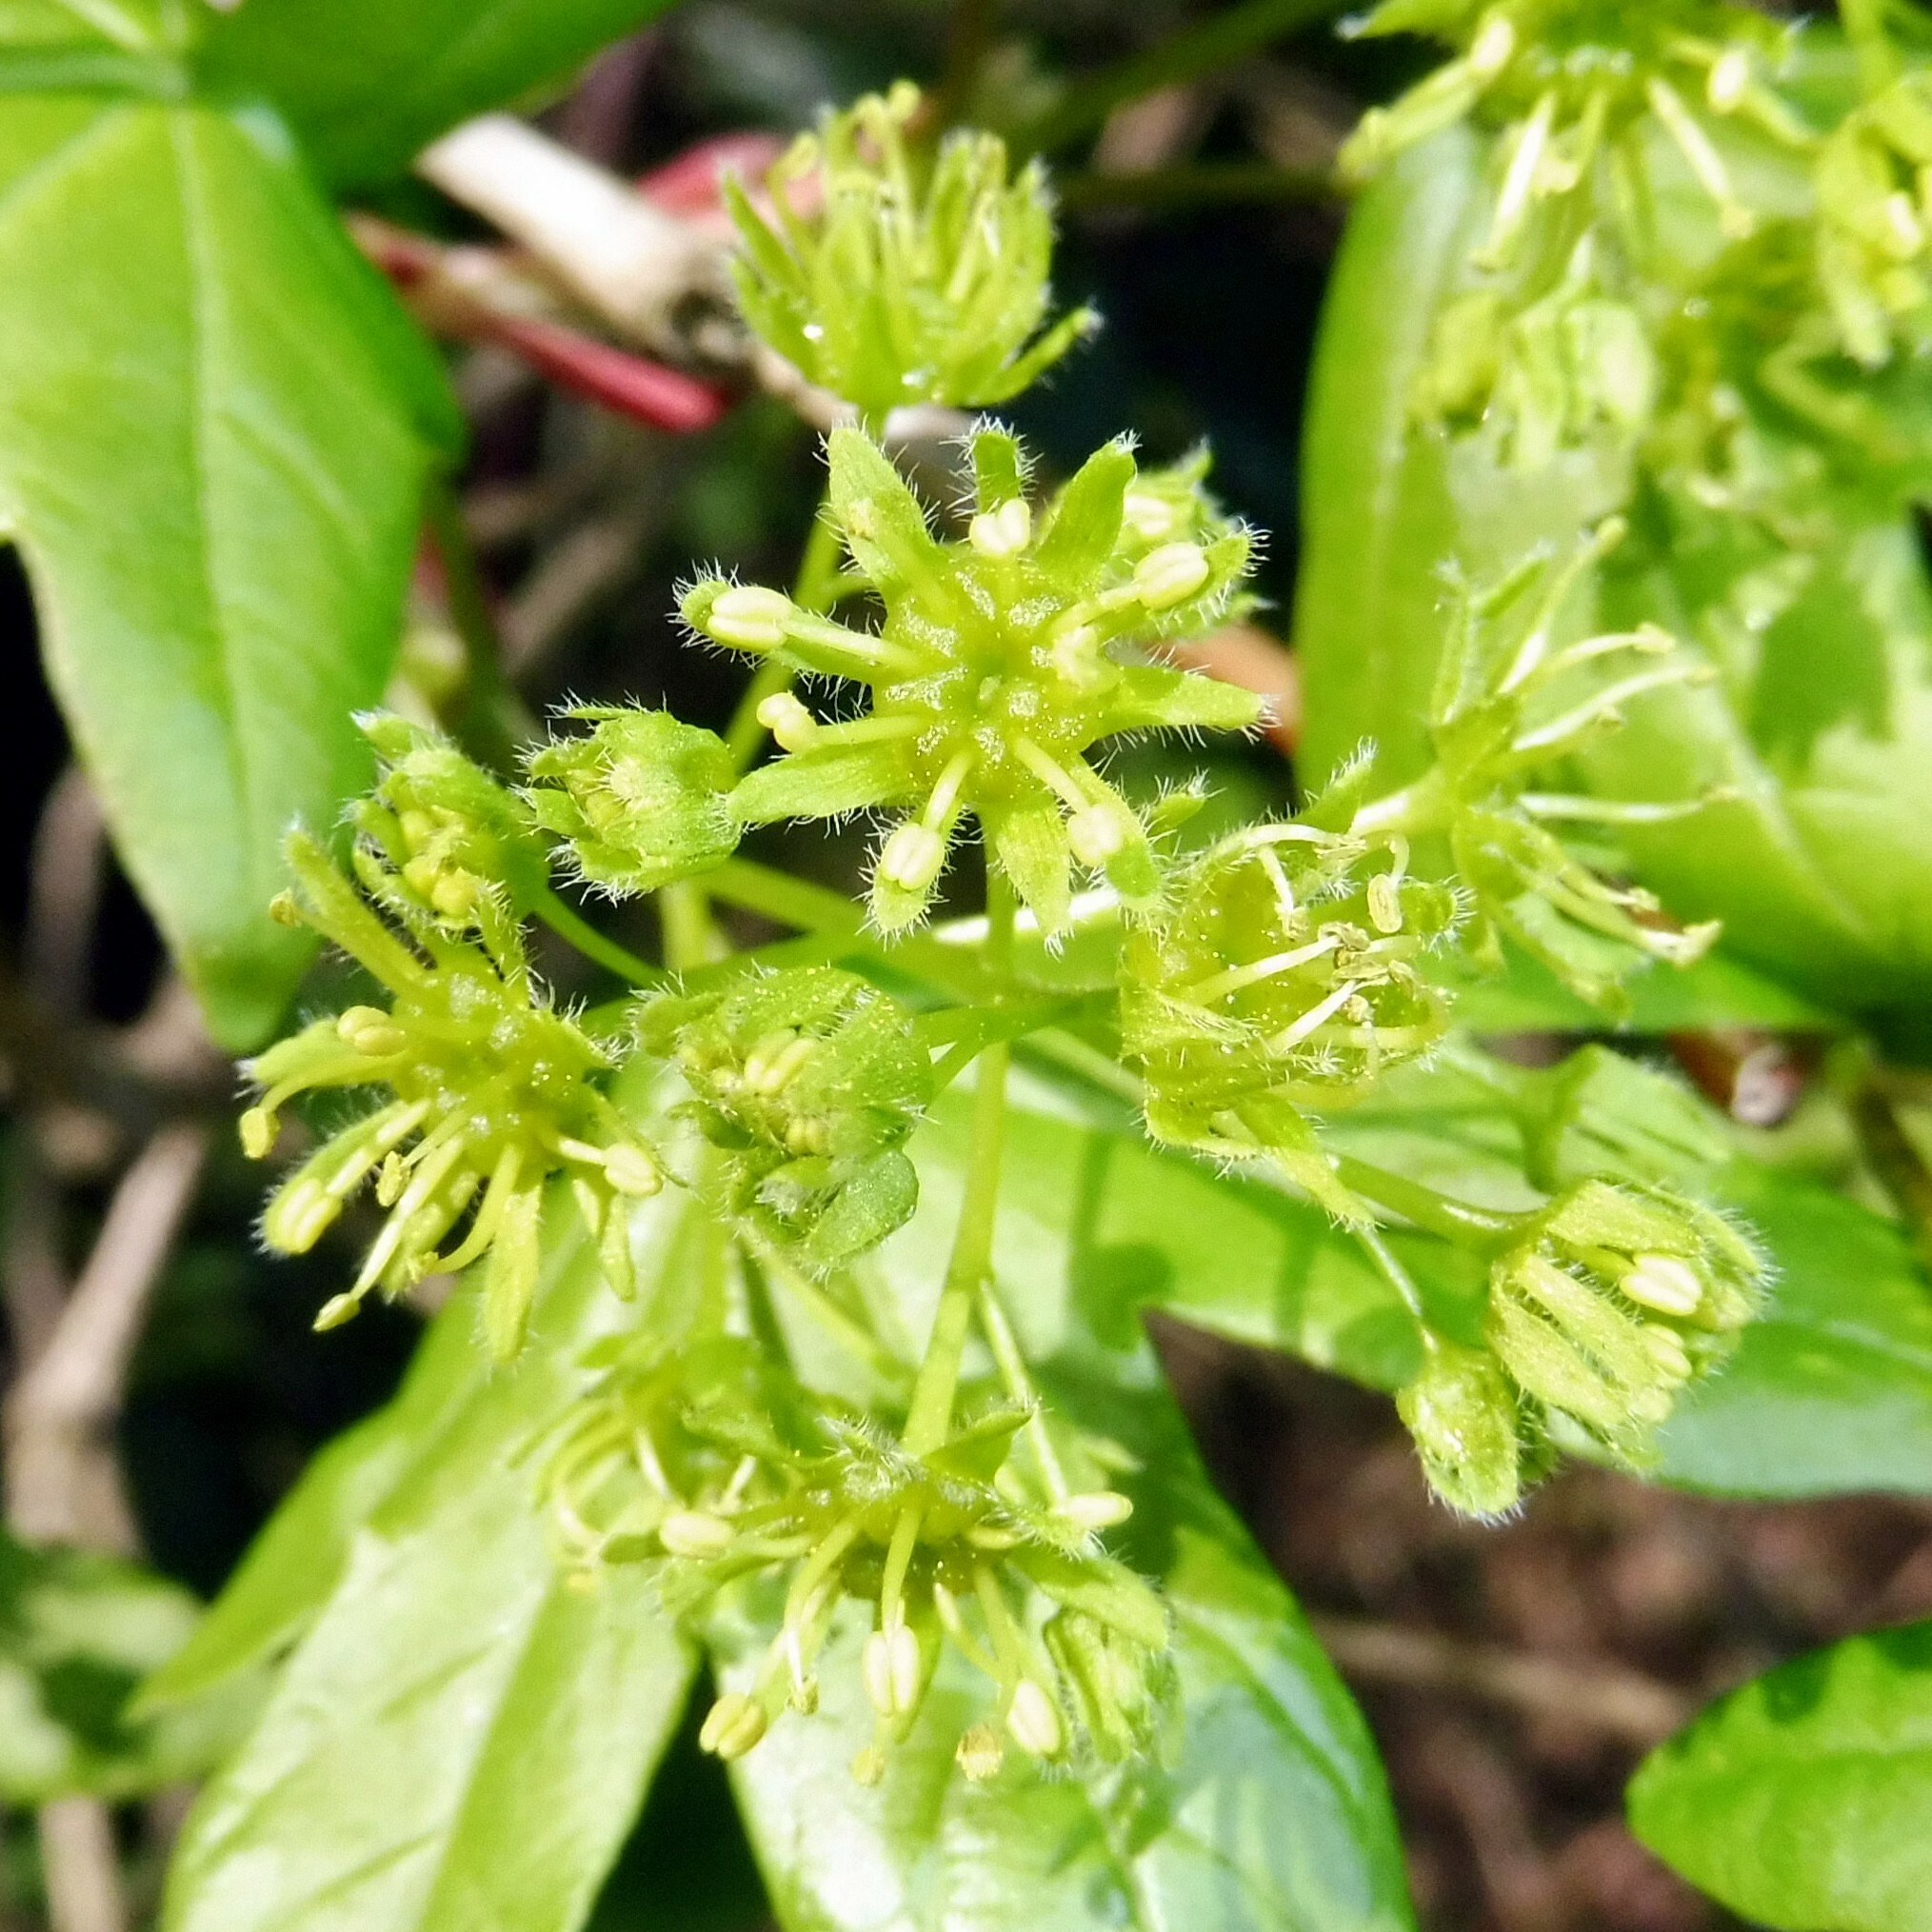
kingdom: Plantae
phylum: Tracheophyta
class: Magnoliopsida
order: Sapindales
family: Sapindaceae
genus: Acer
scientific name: Acer campestre
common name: Field maple
